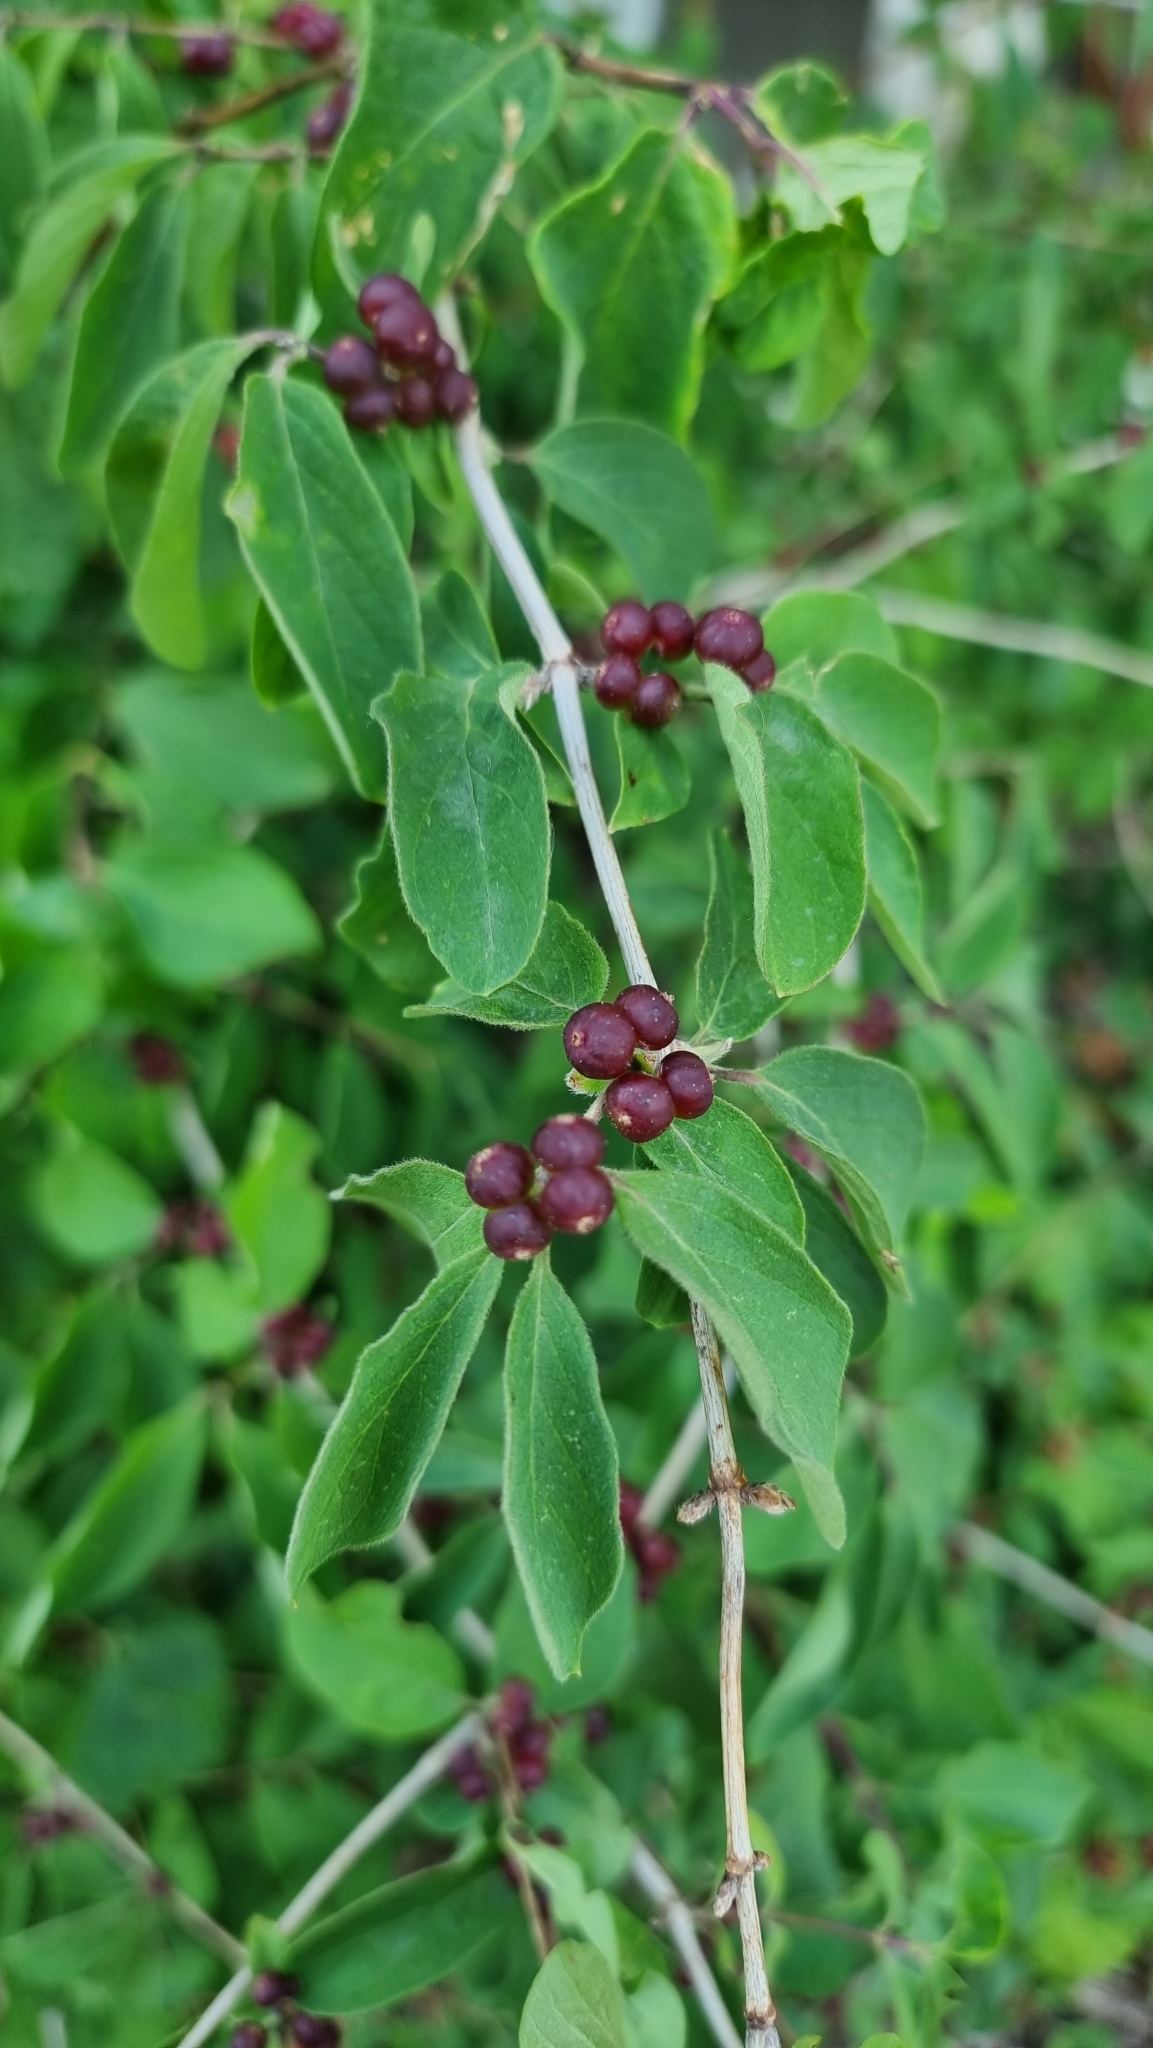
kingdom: Plantae
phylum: Tracheophyta
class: Magnoliopsida
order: Dipsacales
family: Caprifoliaceae
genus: Lonicera
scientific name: Lonicera xylosteum
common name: Fly honeysuckle
